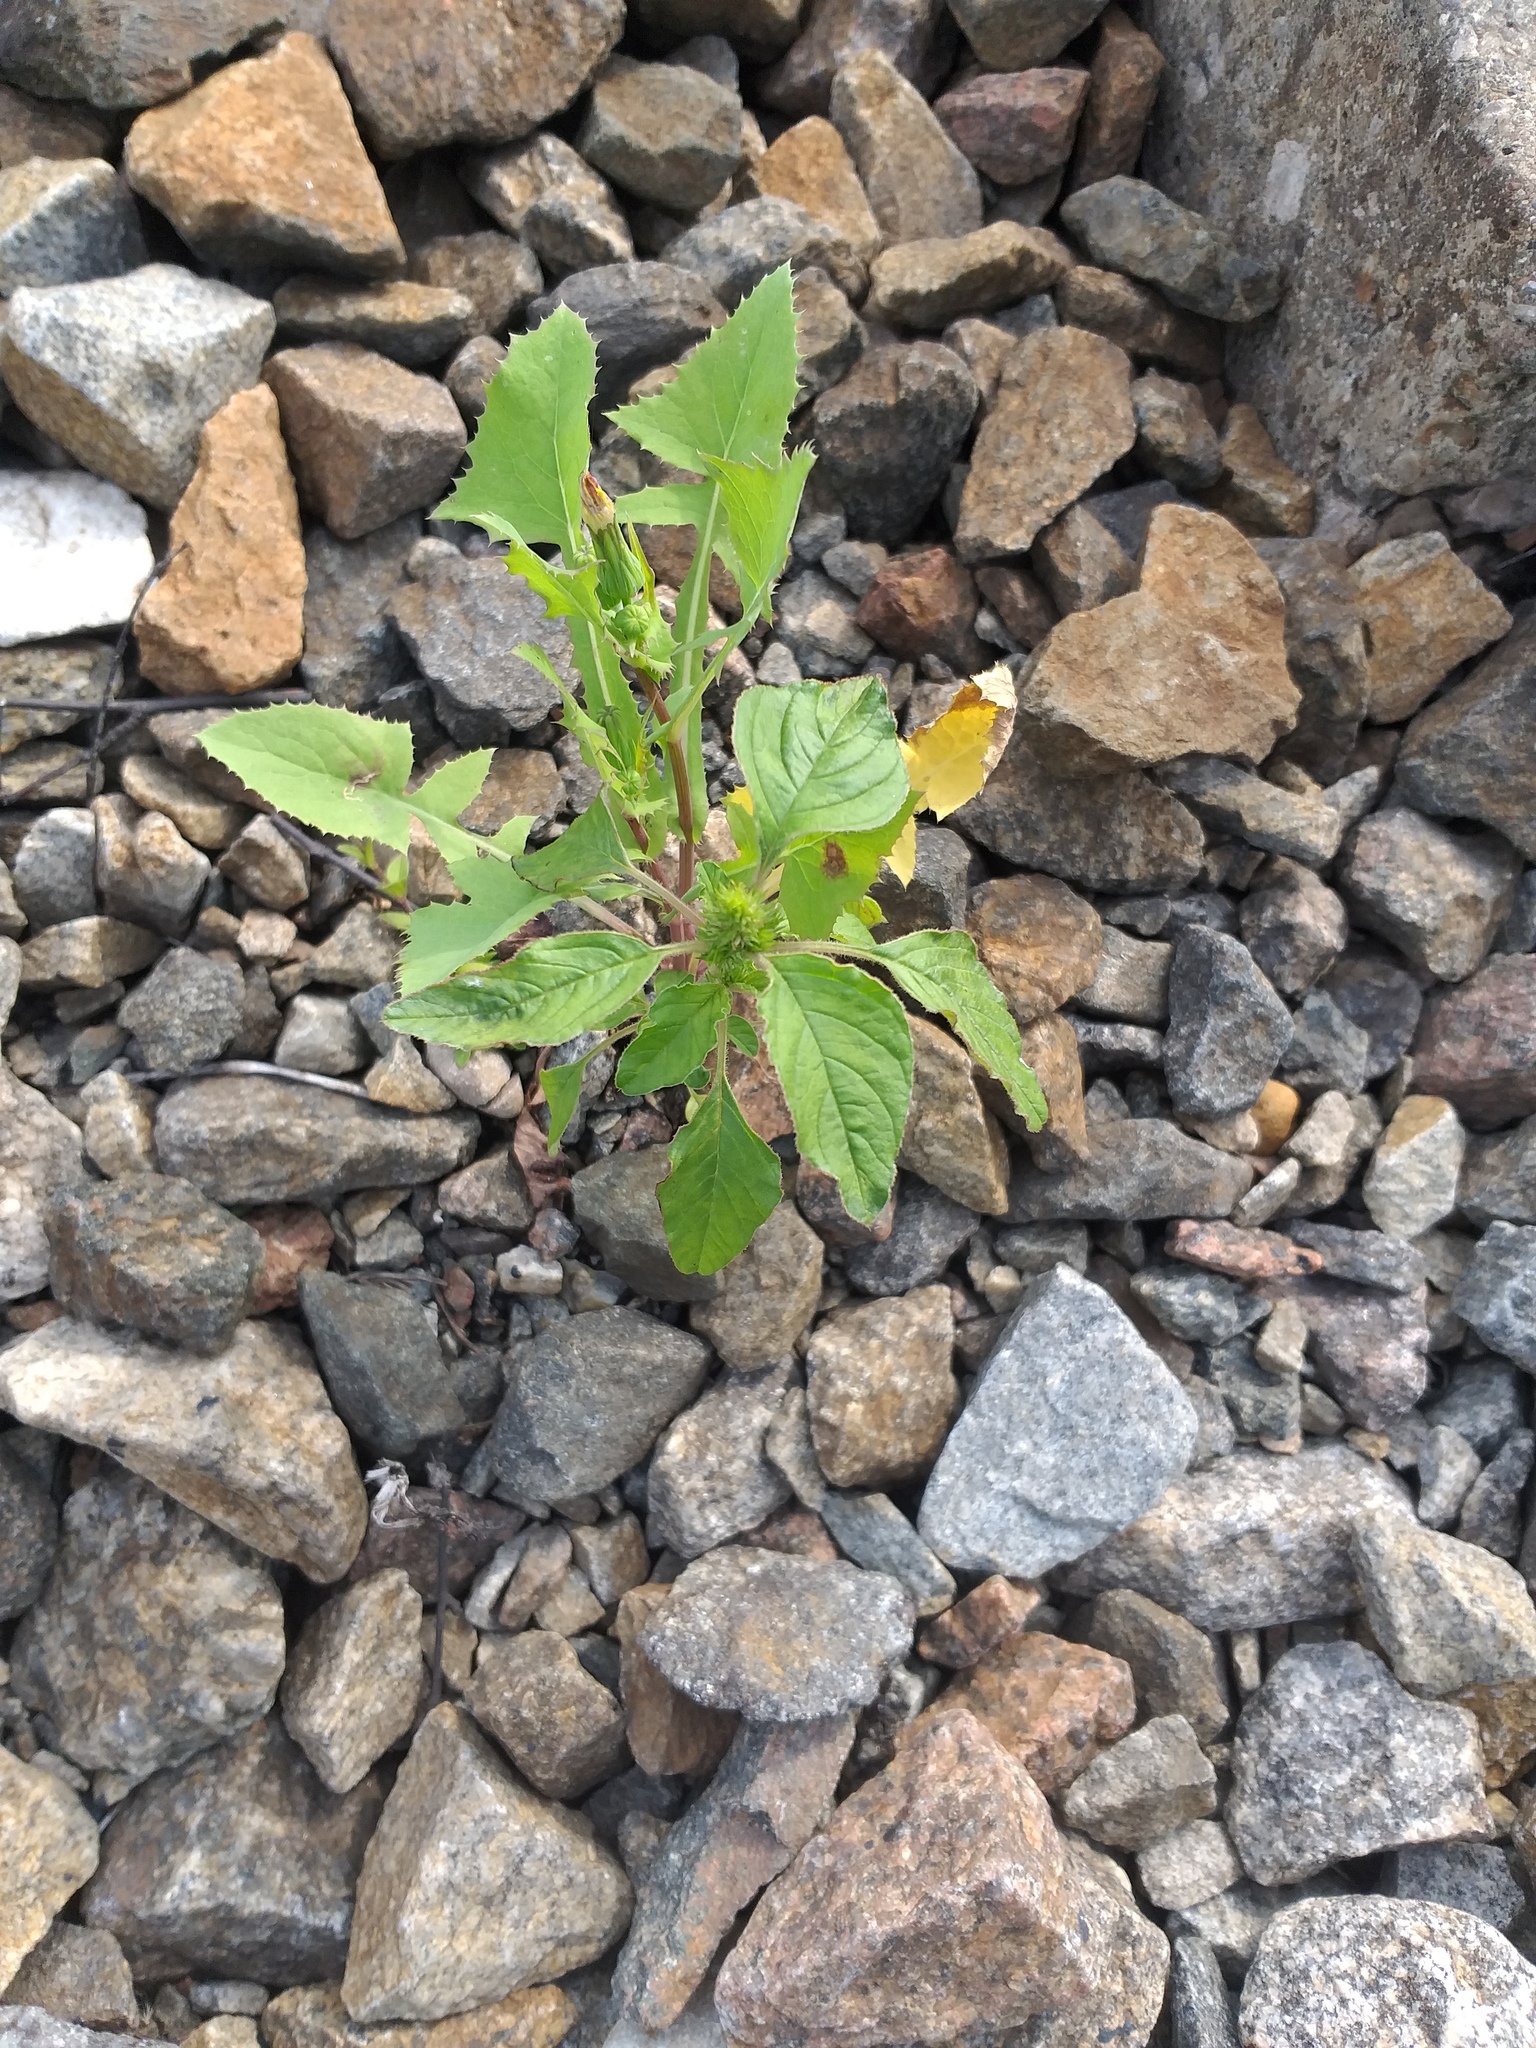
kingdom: Plantae
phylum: Tracheophyta
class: Magnoliopsida
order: Caryophyllales
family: Amaranthaceae
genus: Amaranthus
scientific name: Amaranthus retroflexus
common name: Redroot amaranth
